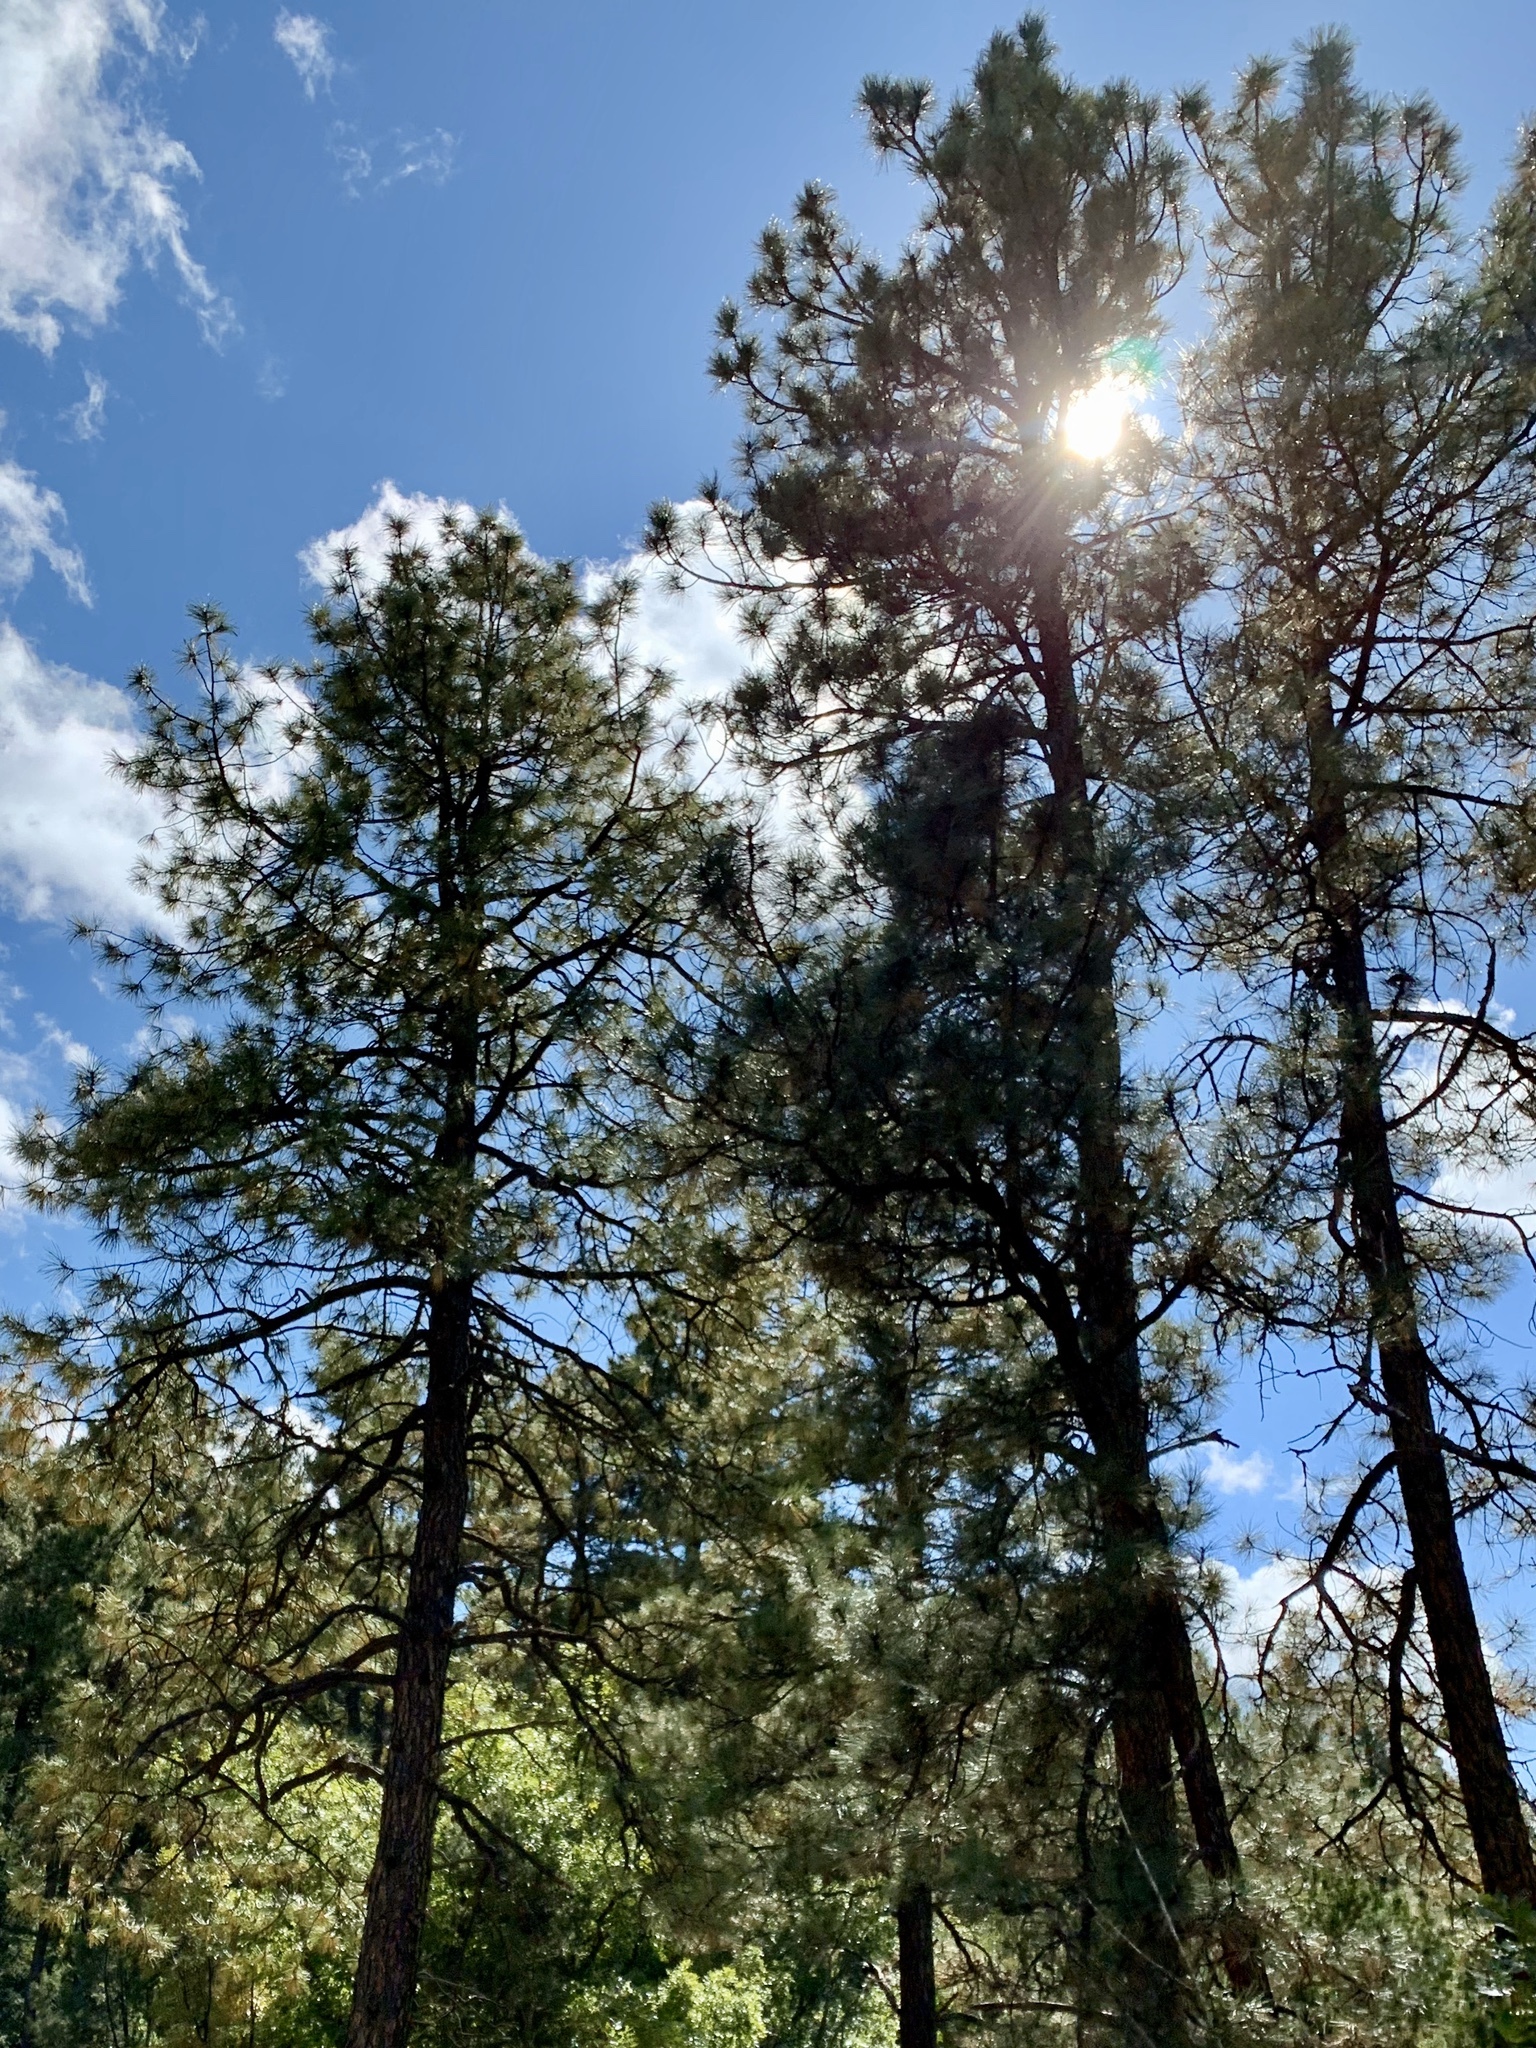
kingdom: Plantae
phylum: Tracheophyta
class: Pinopsida
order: Pinales
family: Pinaceae
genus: Pinus
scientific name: Pinus ponderosa
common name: Western yellow-pine
